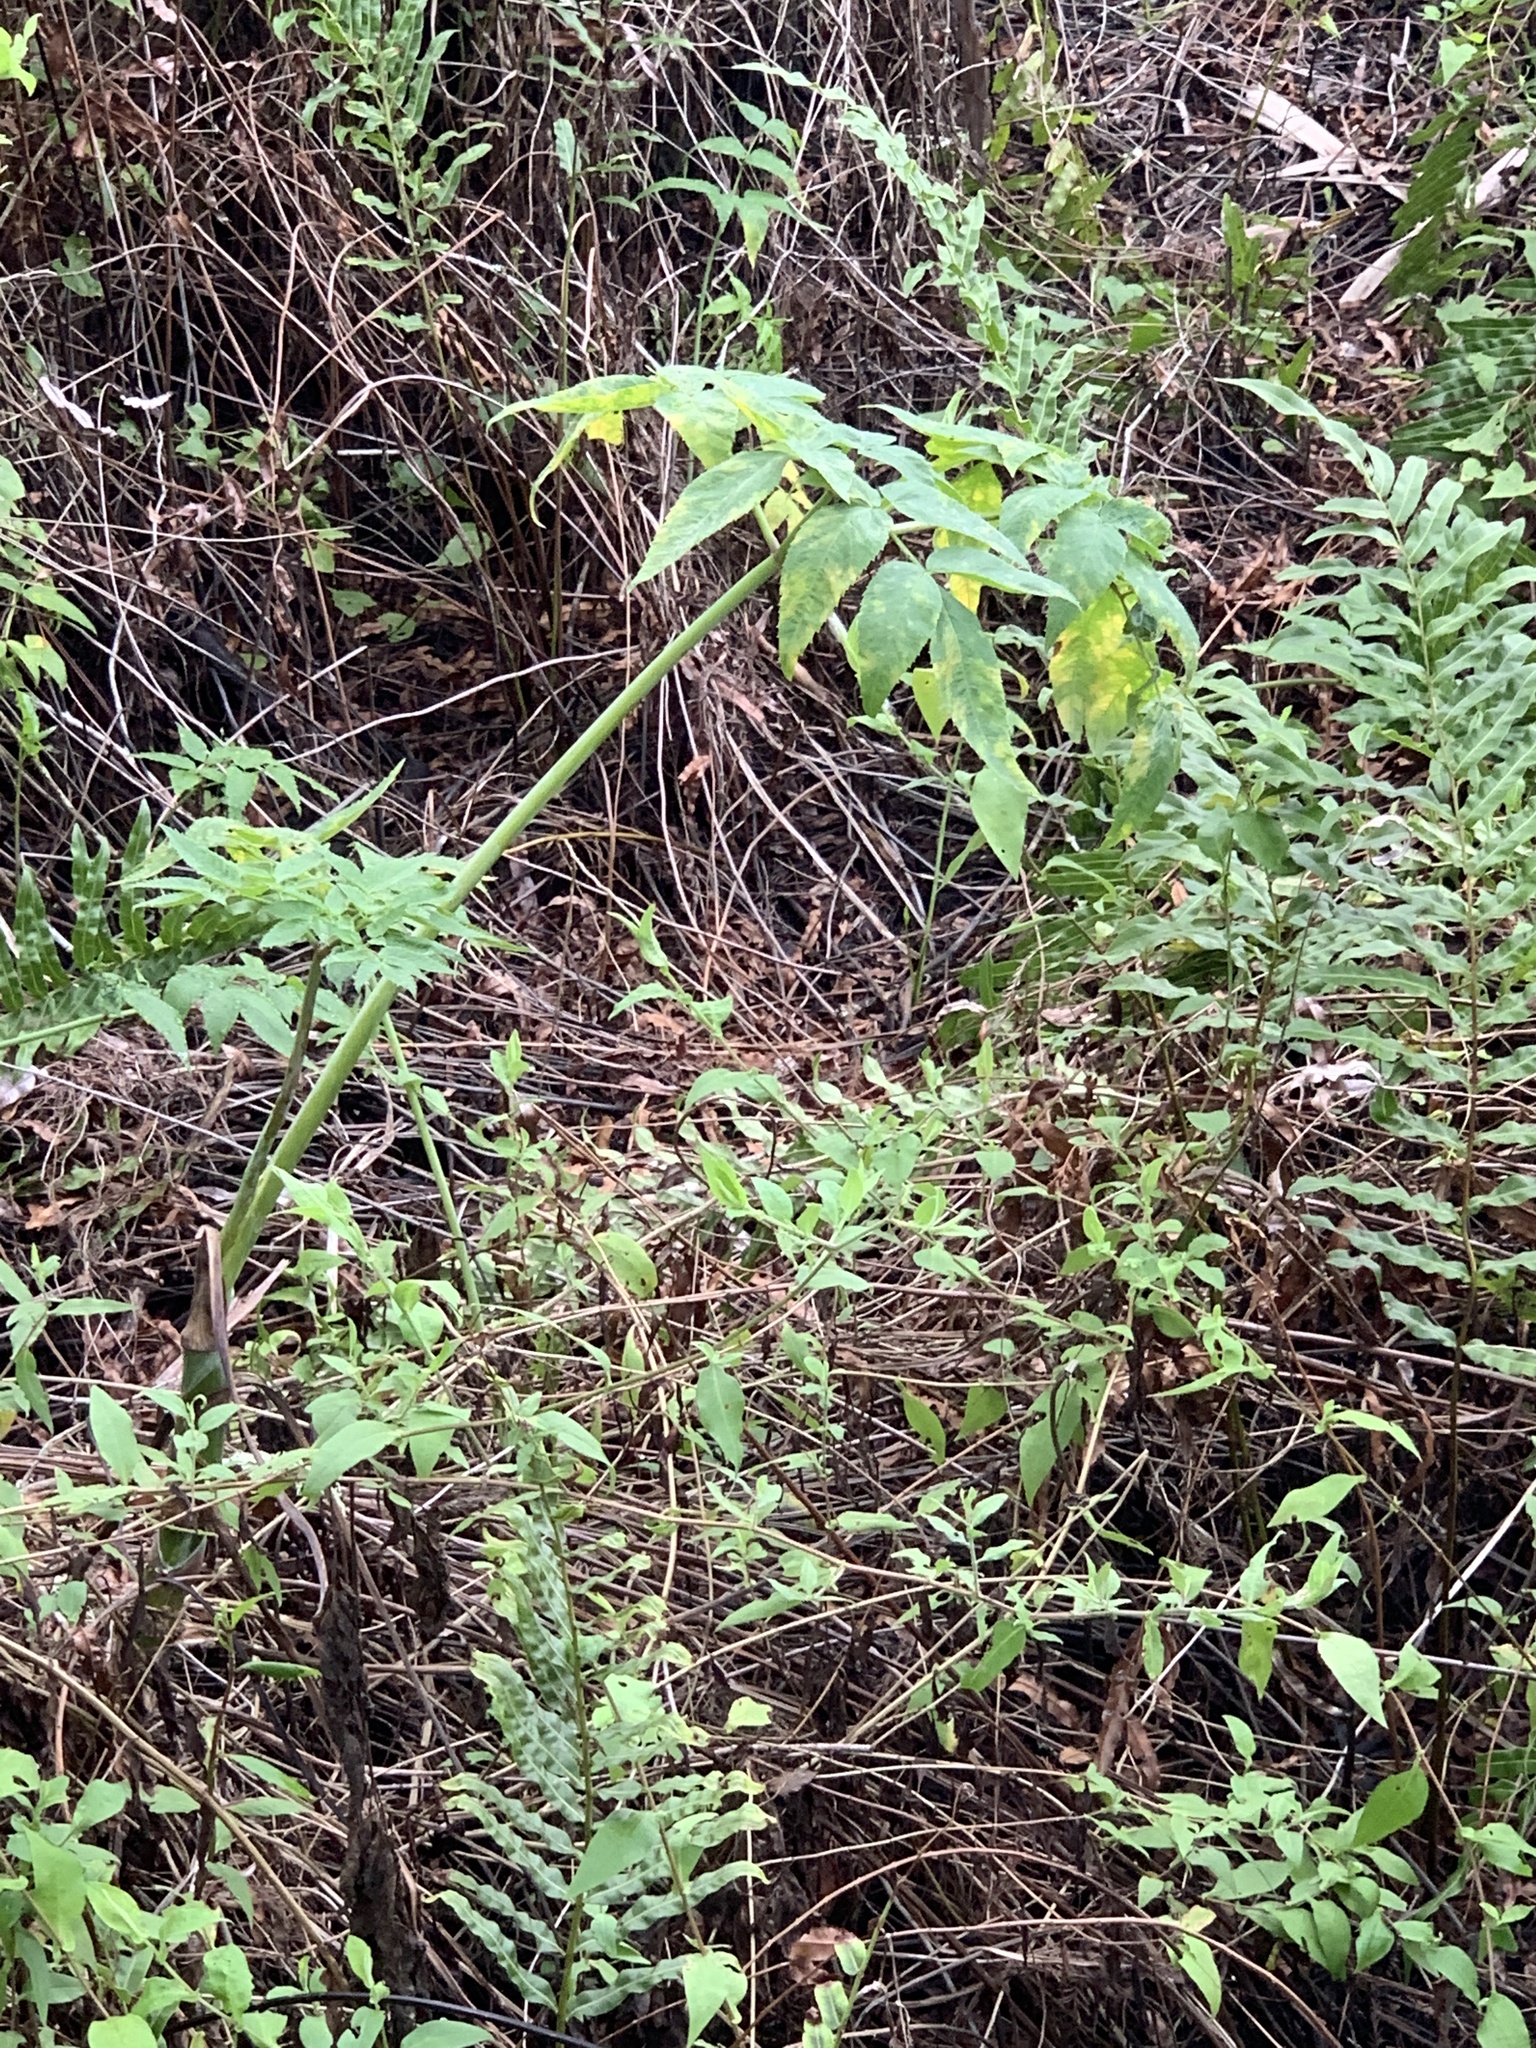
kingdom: Plantae
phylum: Tracheophyta
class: Magnoliopsida
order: Apiales
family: Apiaceae
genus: Cicuta
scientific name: Cicuta douglasii
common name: Western water-hemlock
